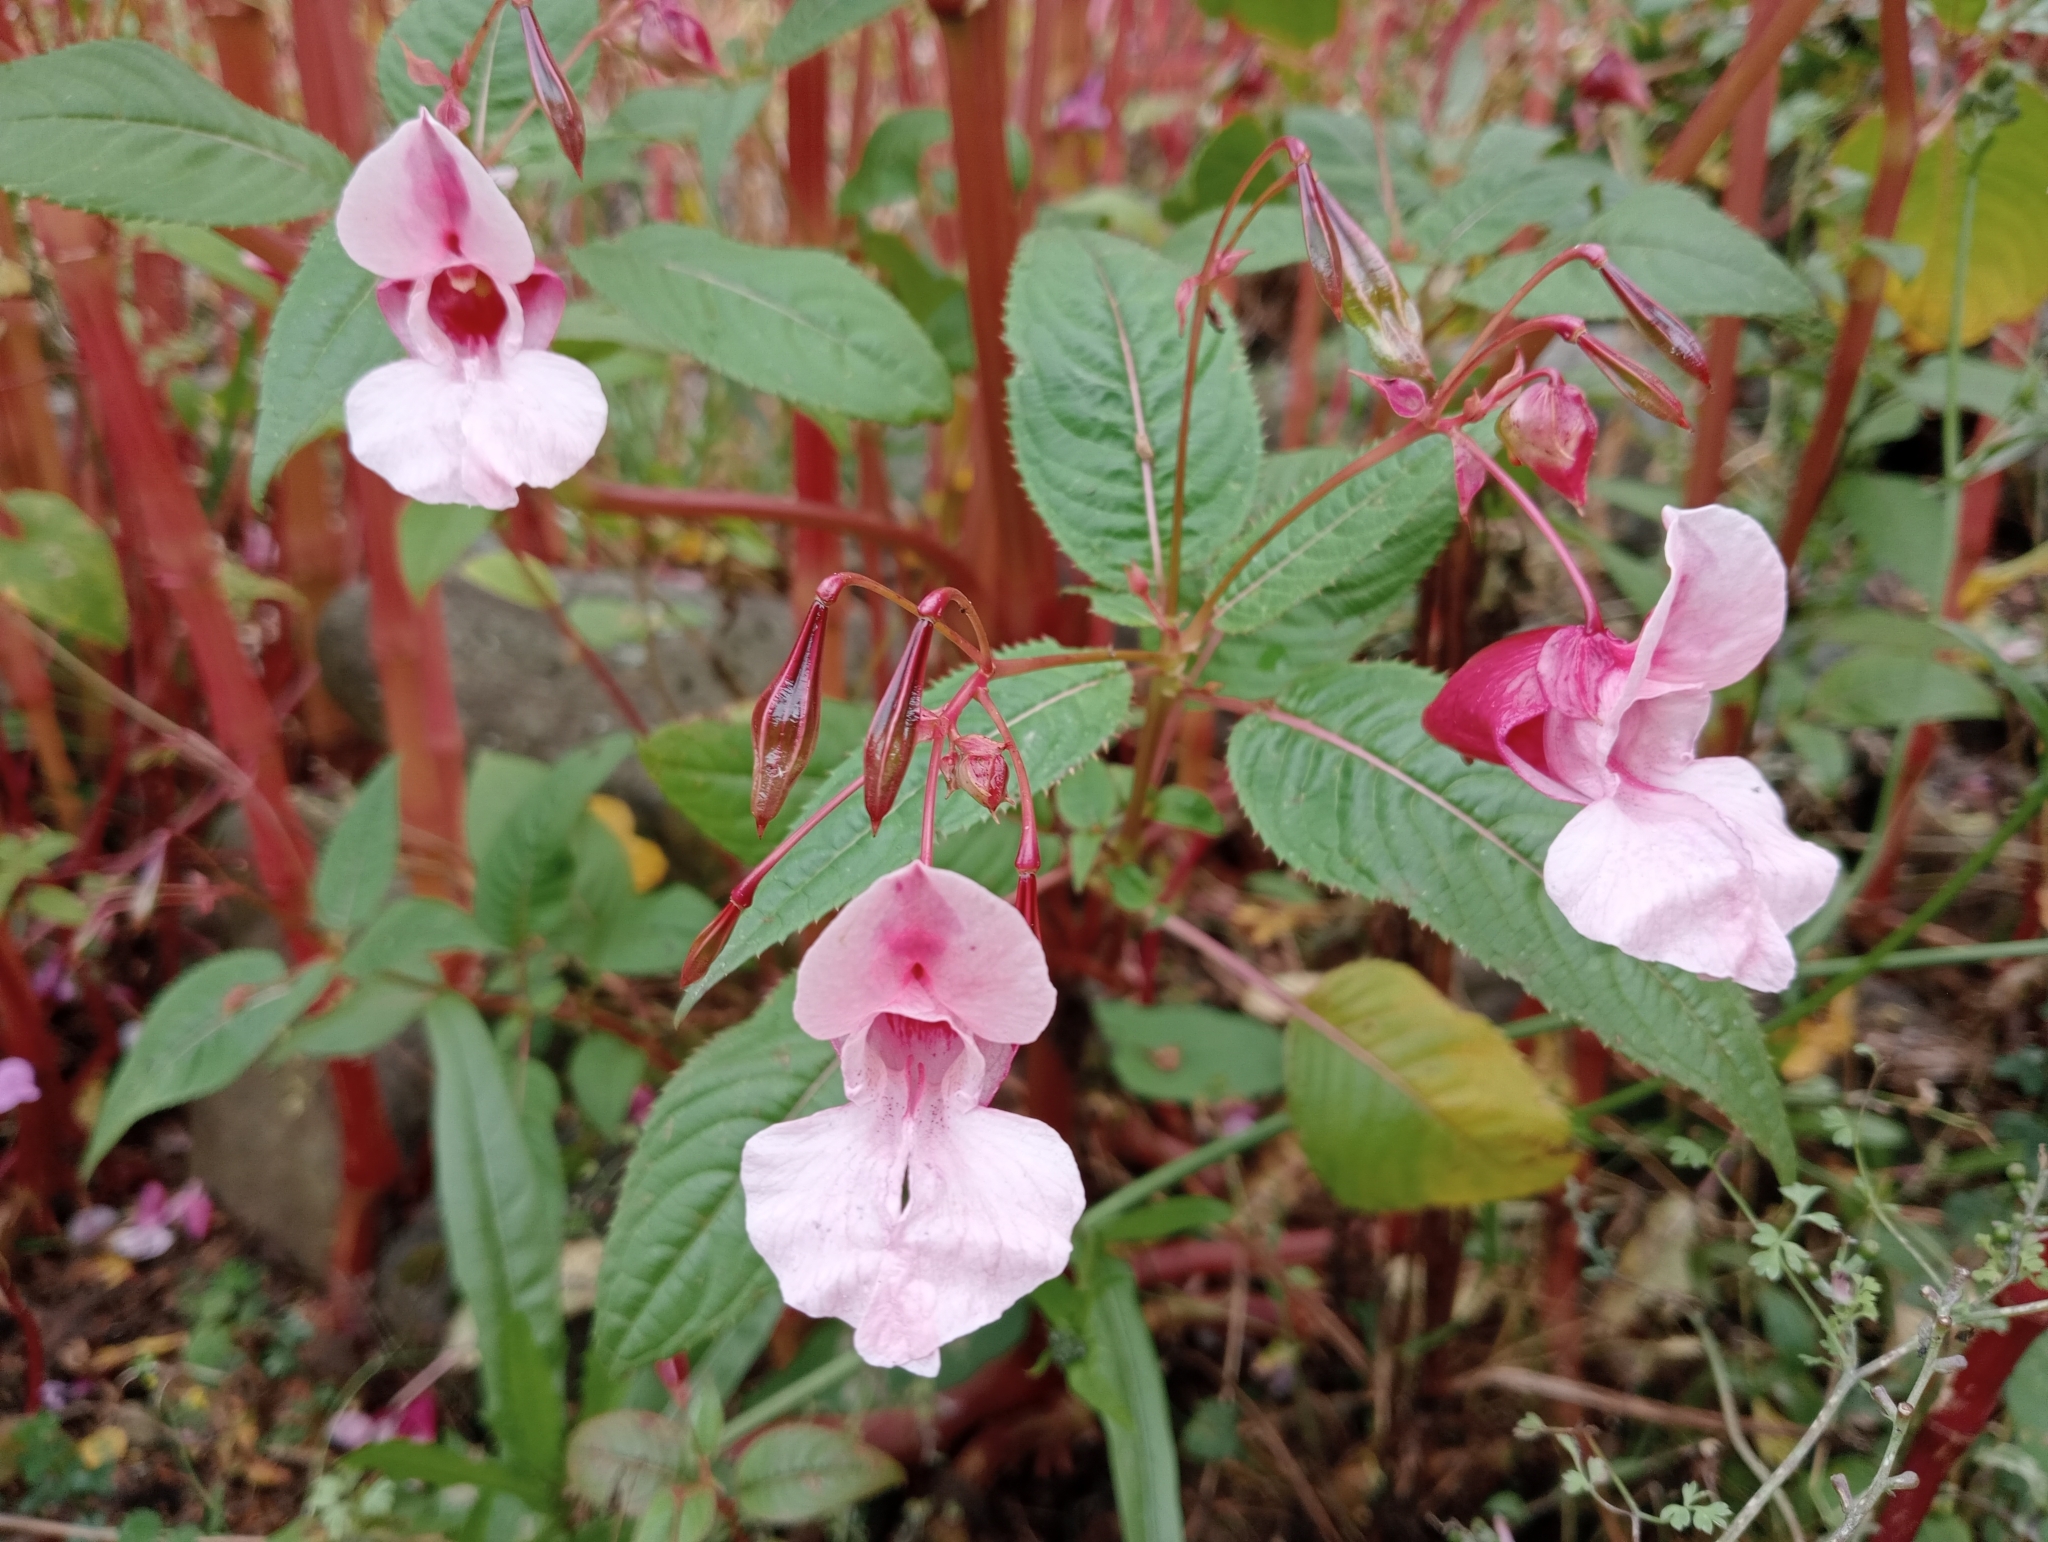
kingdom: Plantae
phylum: Tracheophyta
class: Magnoliopsida
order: Ericales
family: Balsaminaceae
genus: Impatiens
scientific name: Impatiens glandulifera
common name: Himalayan balsam
